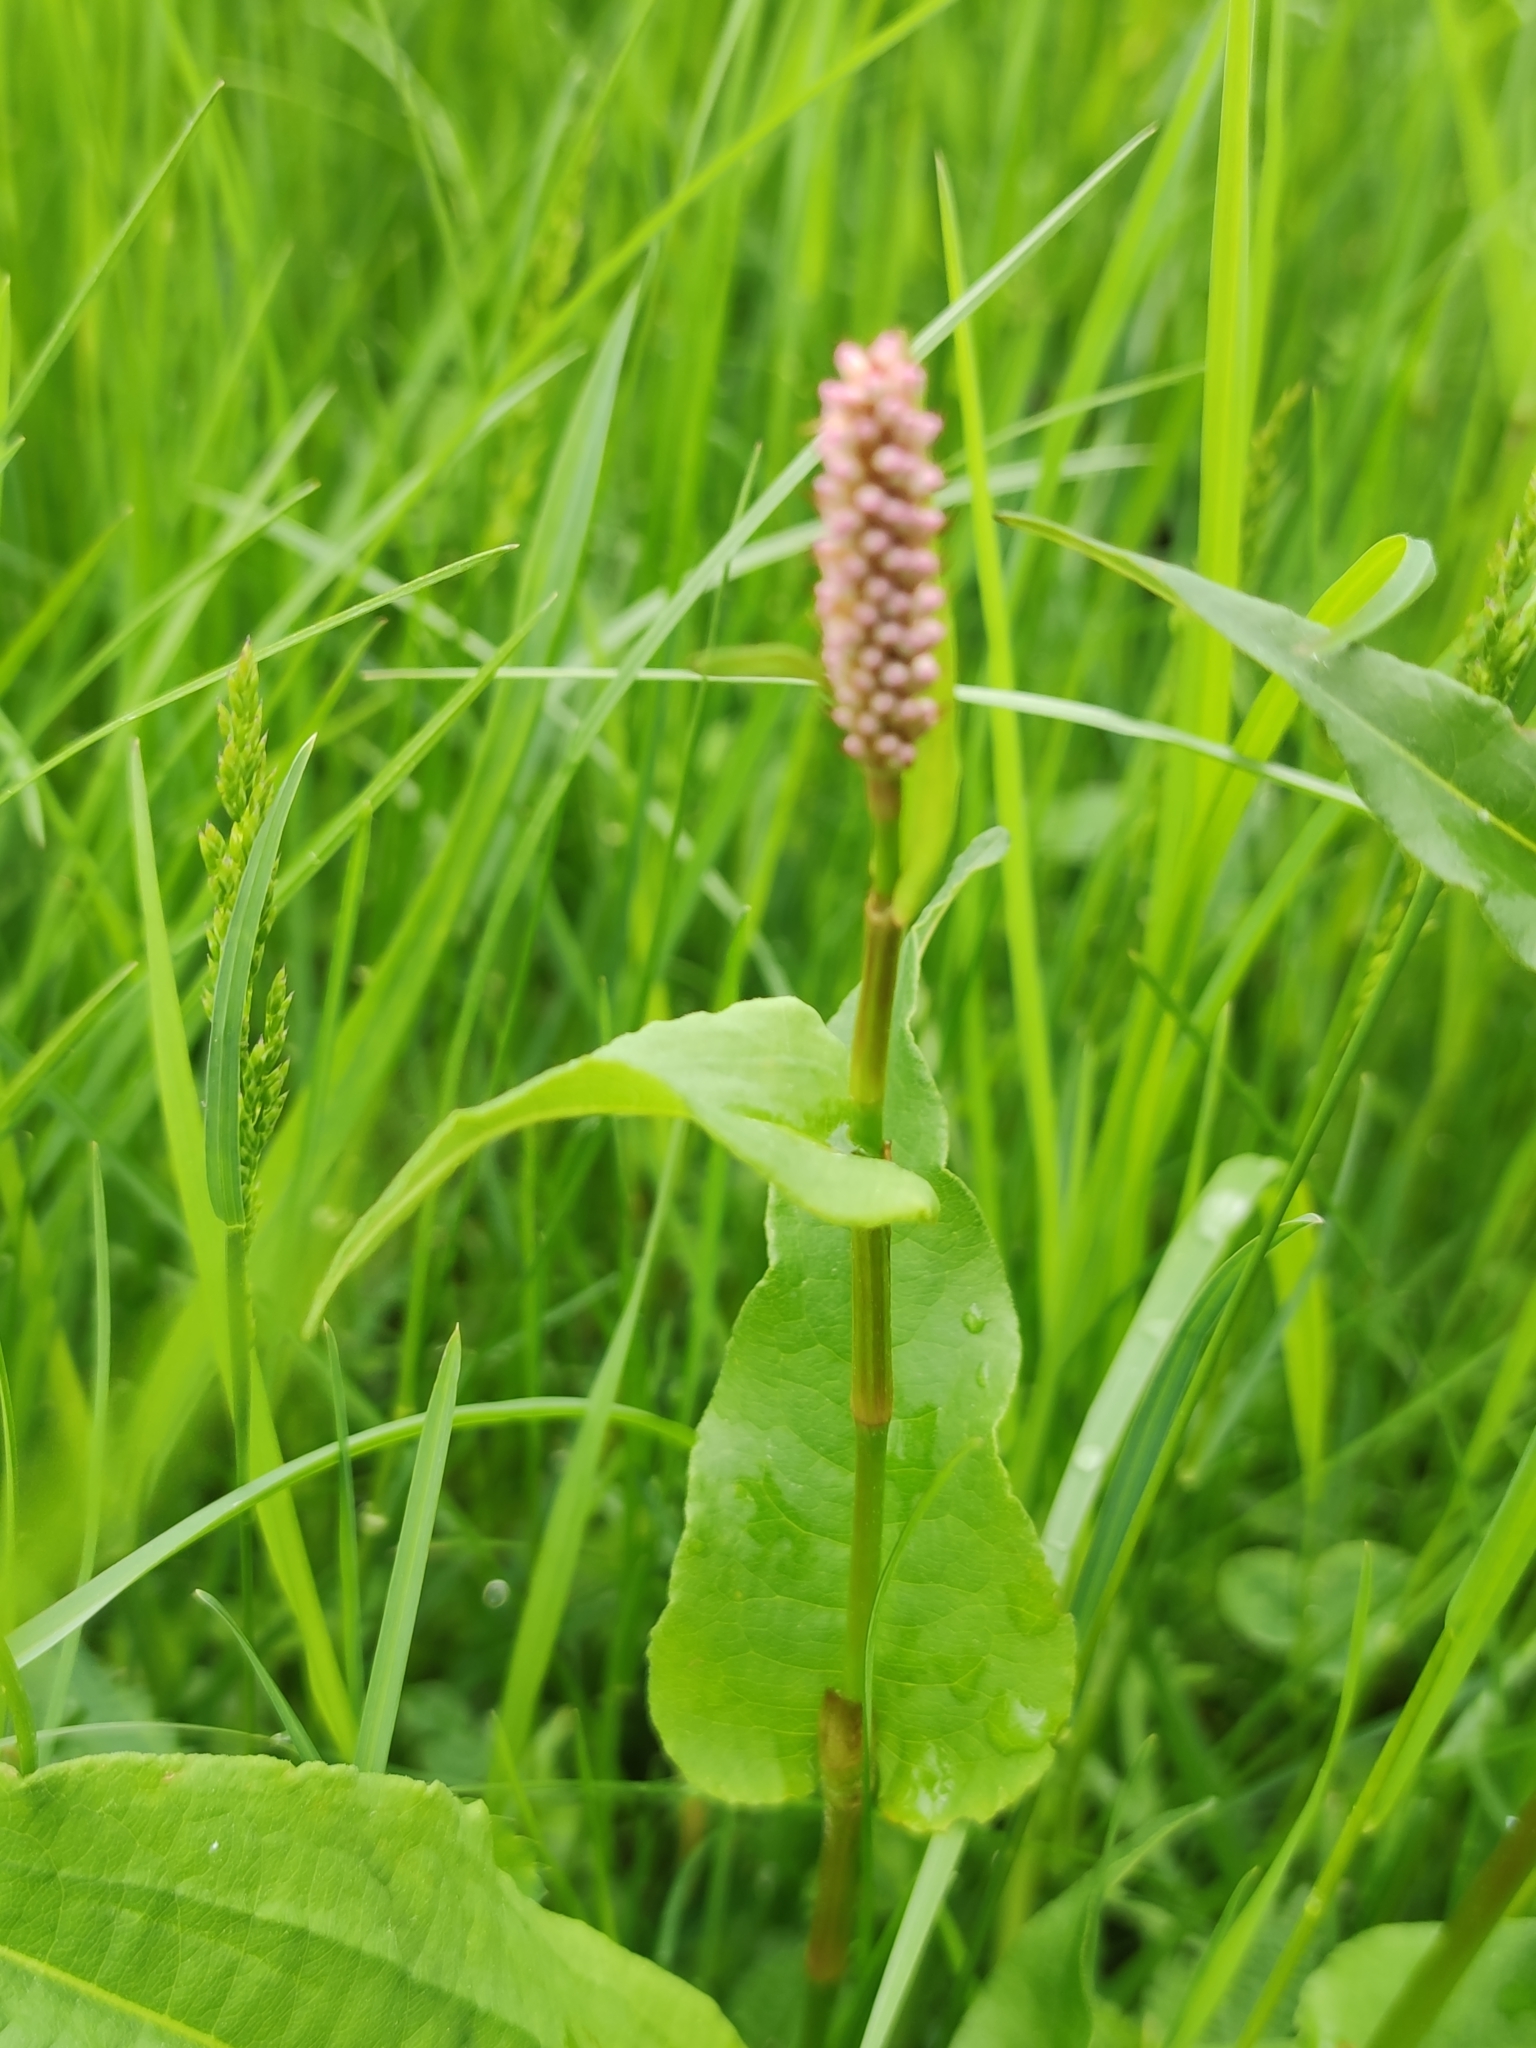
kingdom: Plantae
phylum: Tracheophyta
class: Magnoliopsida
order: Caryophyllales
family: Polygonaceae
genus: Bistorta
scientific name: Bistorta officinalis
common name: Common bistort
